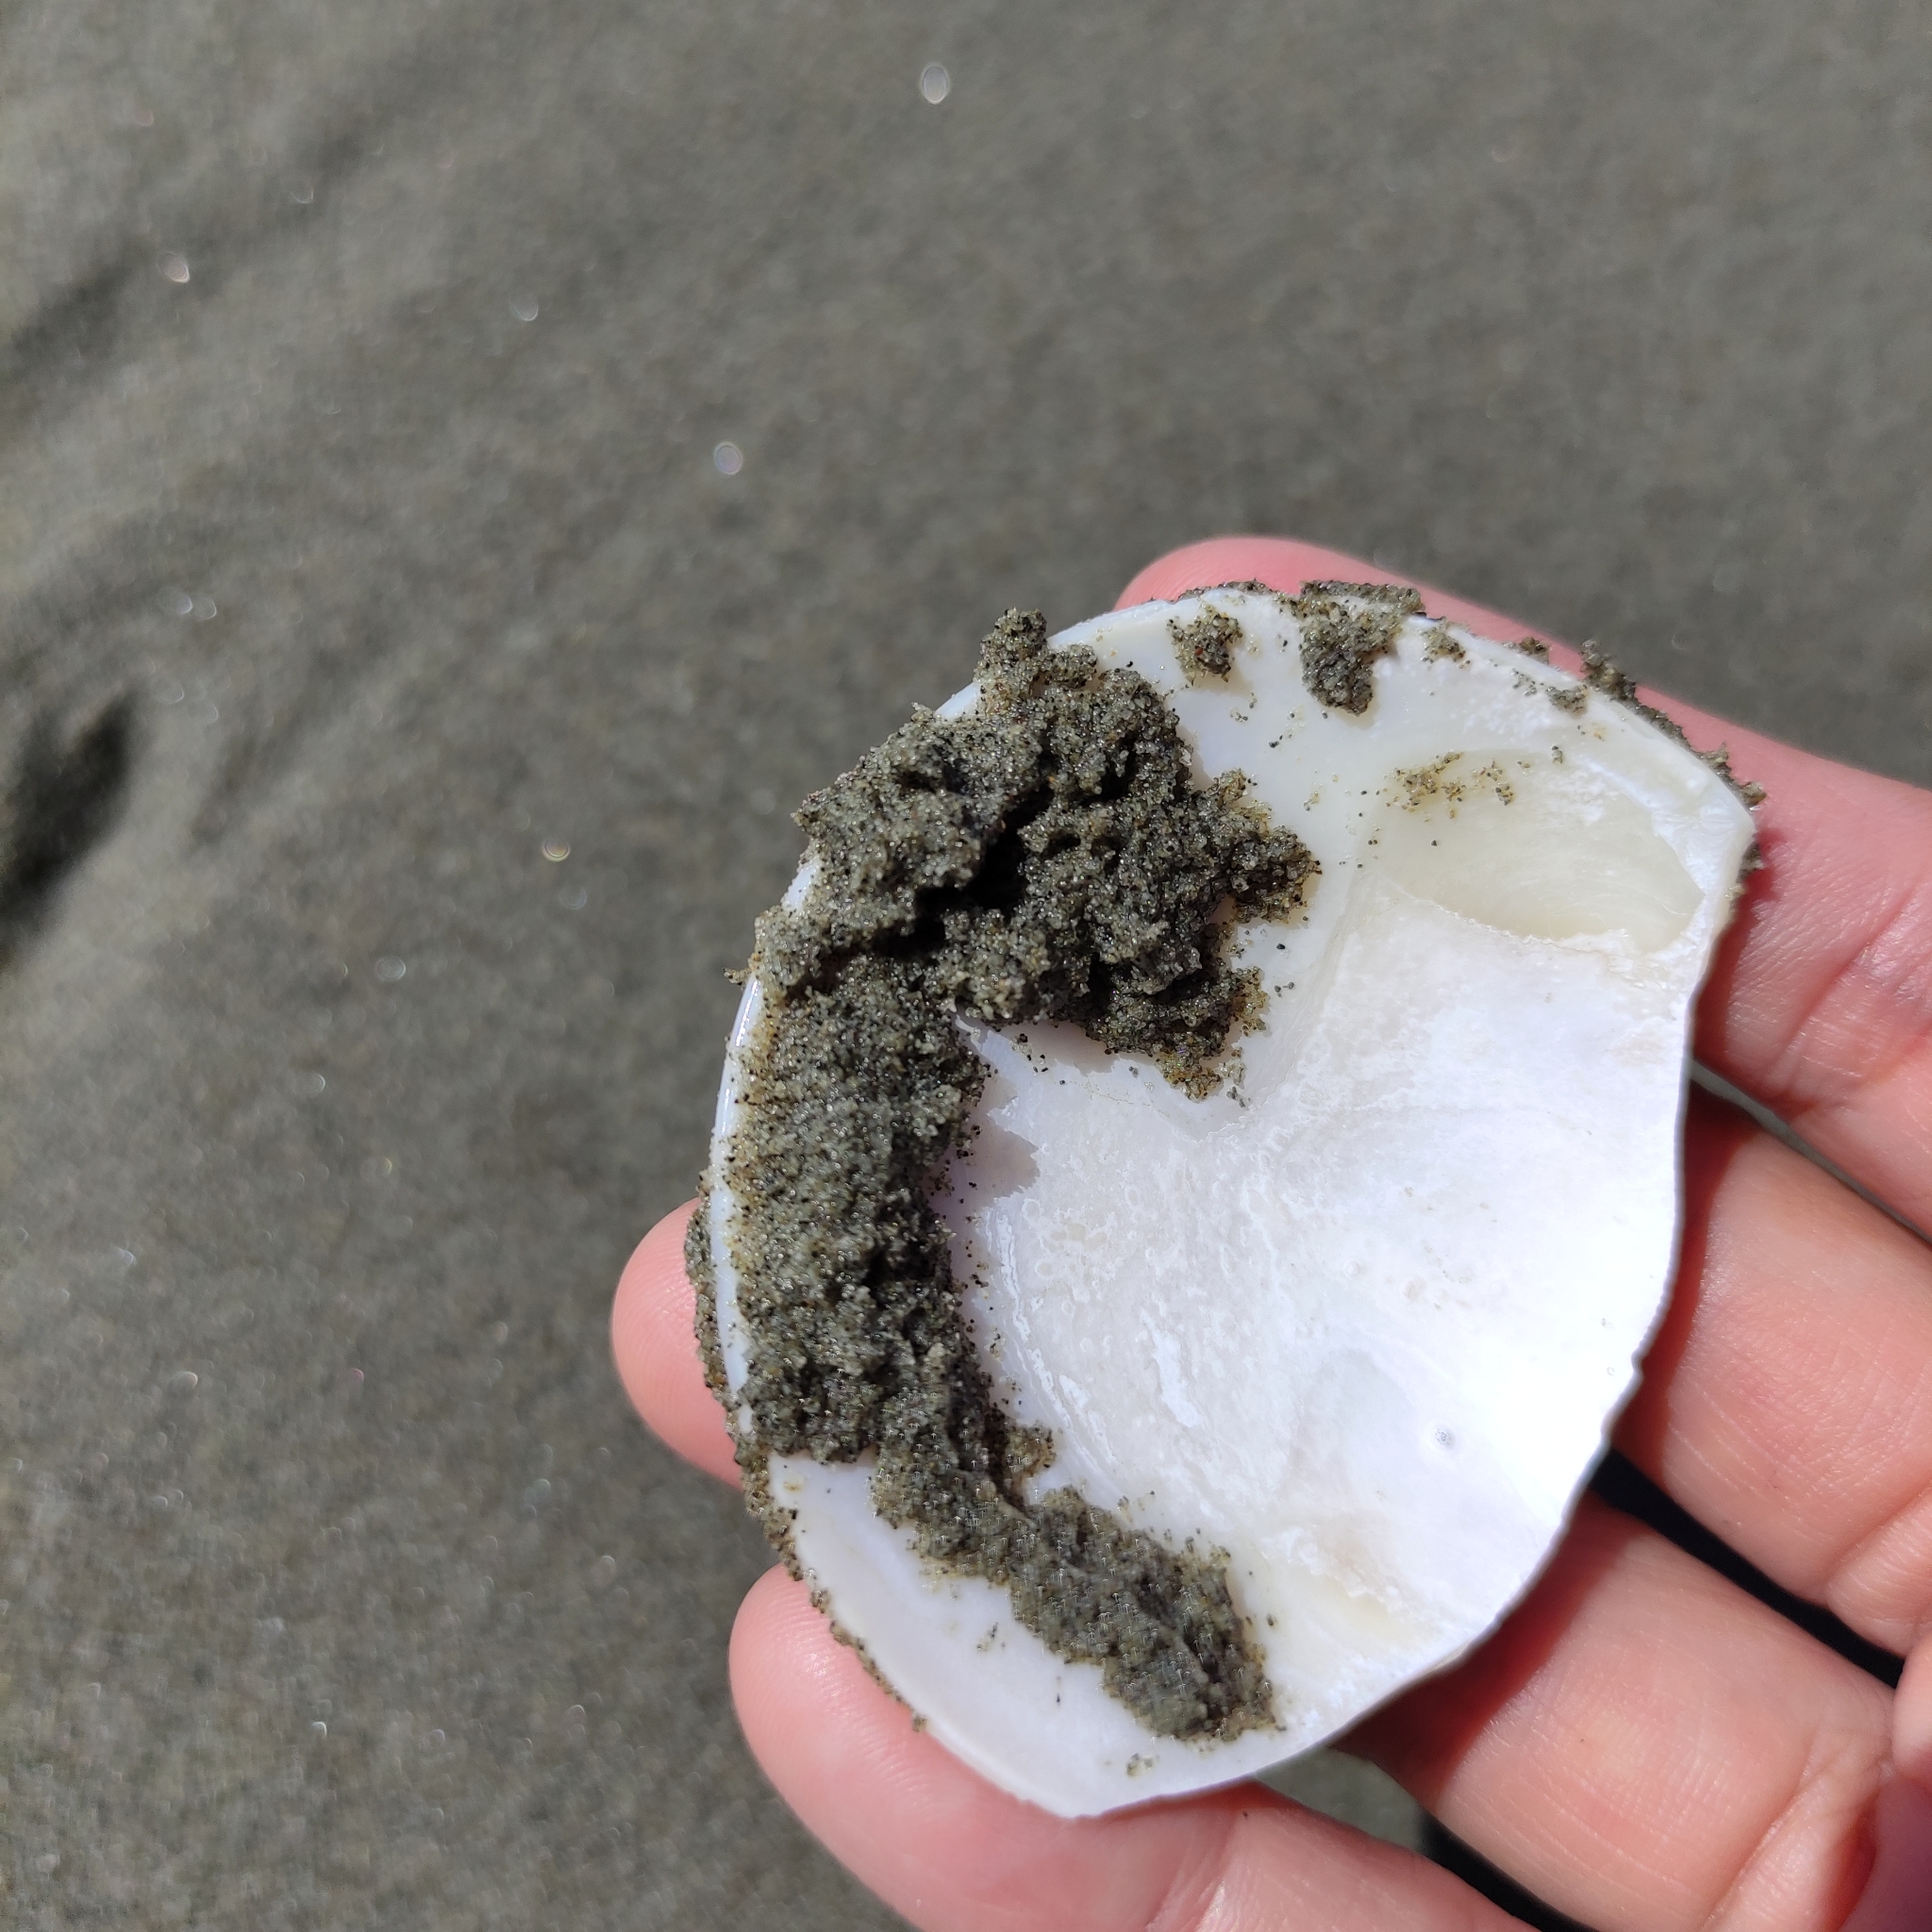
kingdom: Animalia
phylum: Mollusca
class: Bivalvia
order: Venerida
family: Veneridae
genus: Dosinia
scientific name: Dosinia anus
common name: Old-woman dosinia
